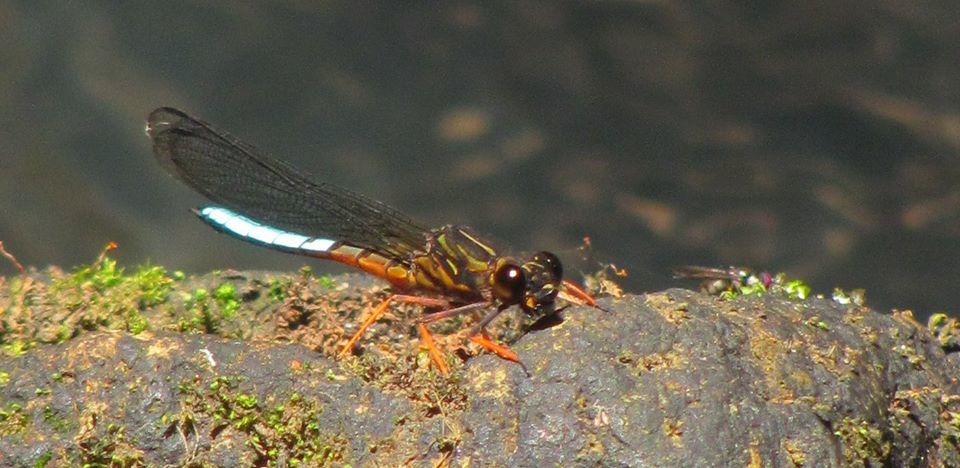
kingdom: Animalia
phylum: Arthropoda
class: Insecta
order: Odonata
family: Chlorocyphidae
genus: Platycypha
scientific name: Platycypha amboniensis
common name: Kenya jewel
